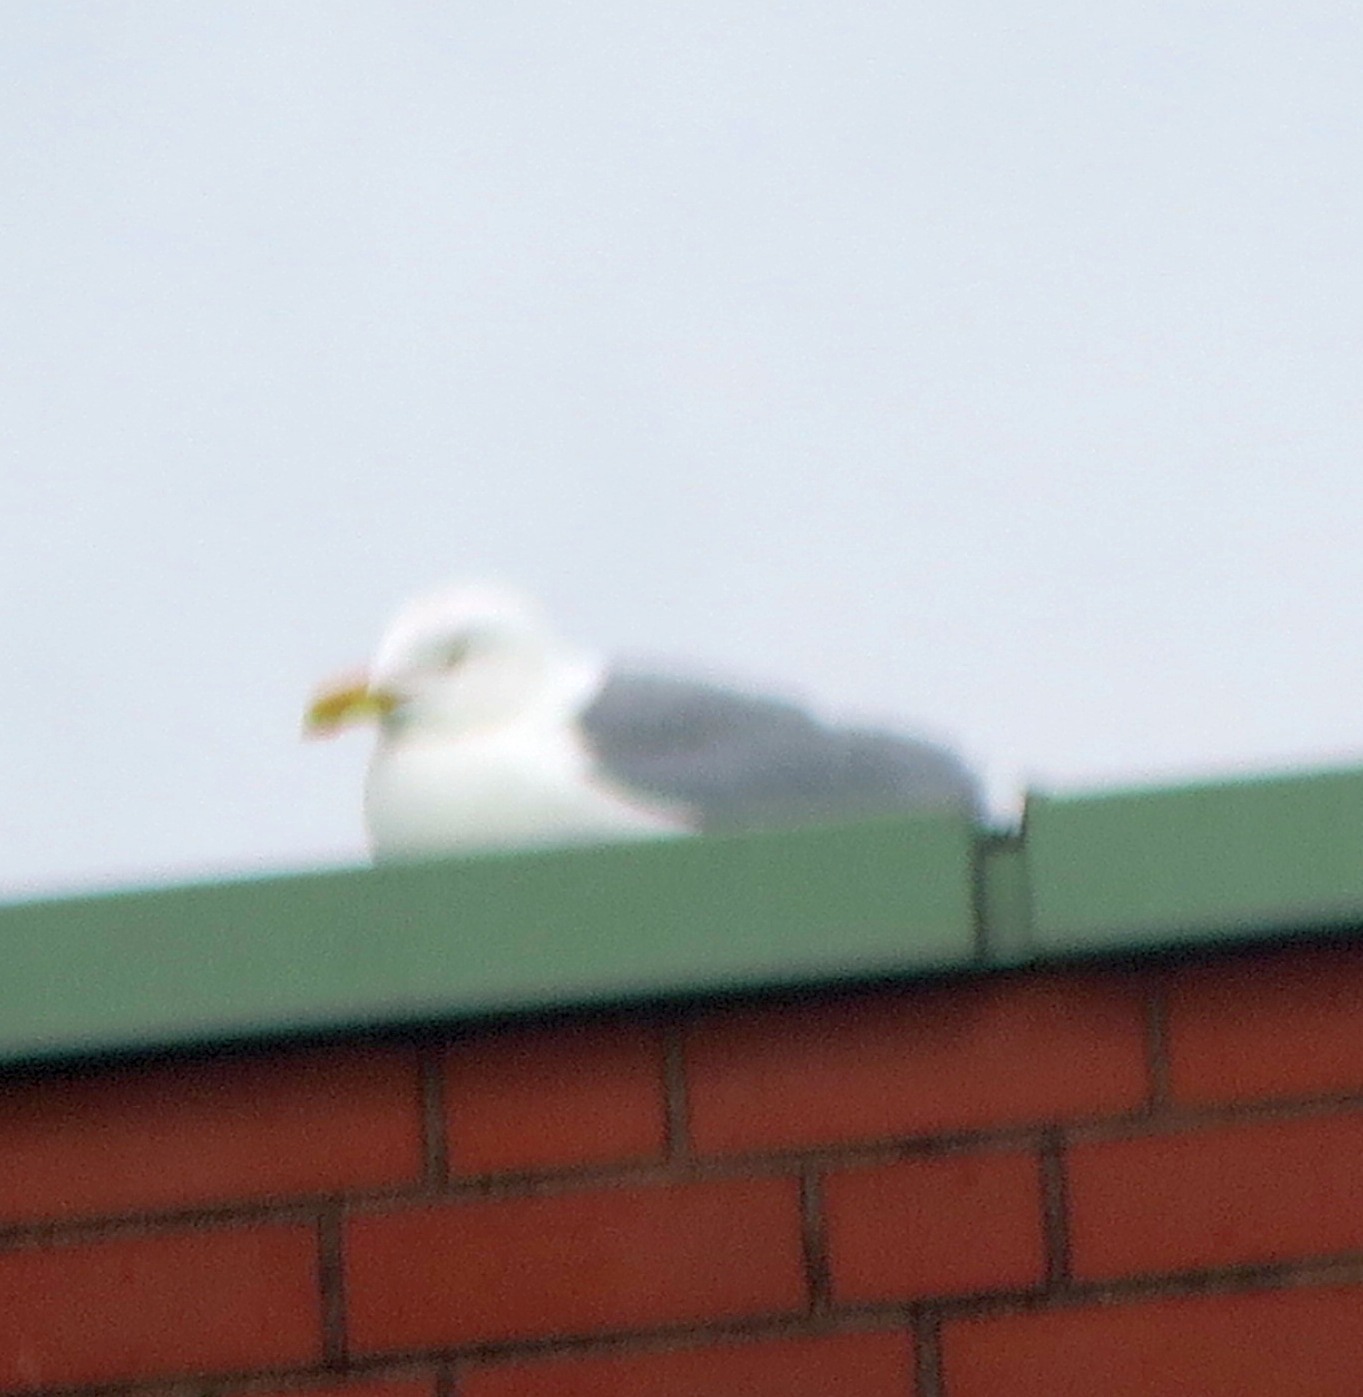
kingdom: Animalia
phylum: Chordata
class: Aves
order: Charadriiformes
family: Laridae
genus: Larus
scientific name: Larus argentatus
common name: Herring gull
